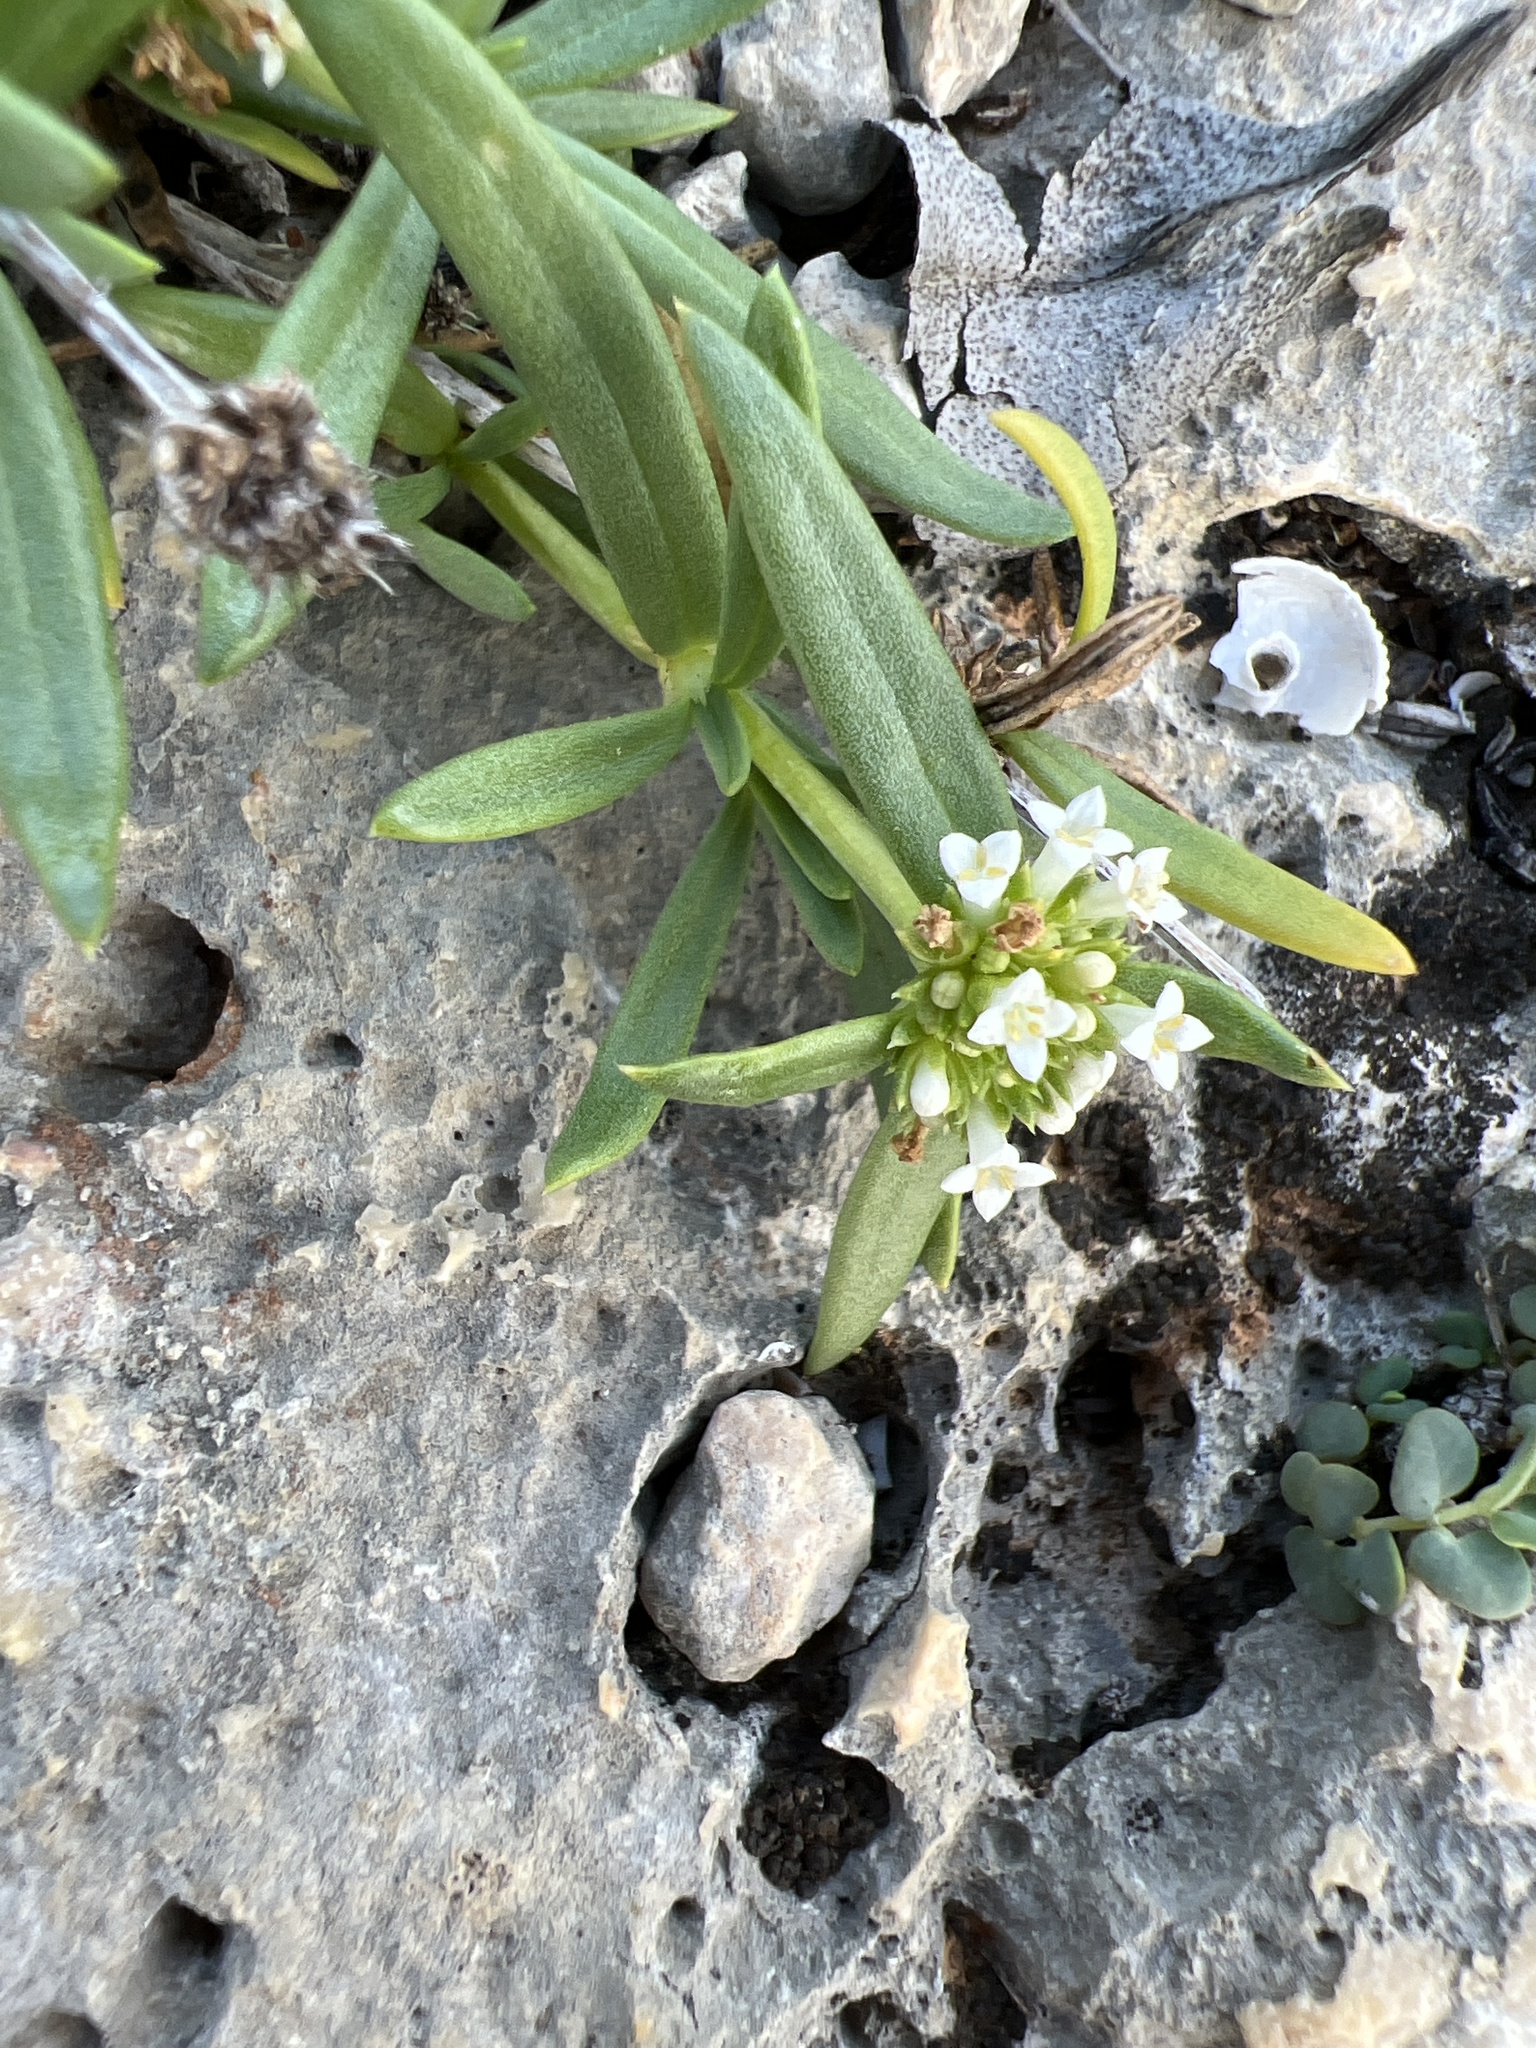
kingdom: Plantae
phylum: Tracheophyta
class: Magnoliopsida
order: Gentianales
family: Rubiaceae
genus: Mitracarpus
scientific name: Mitracarpus polycladus
